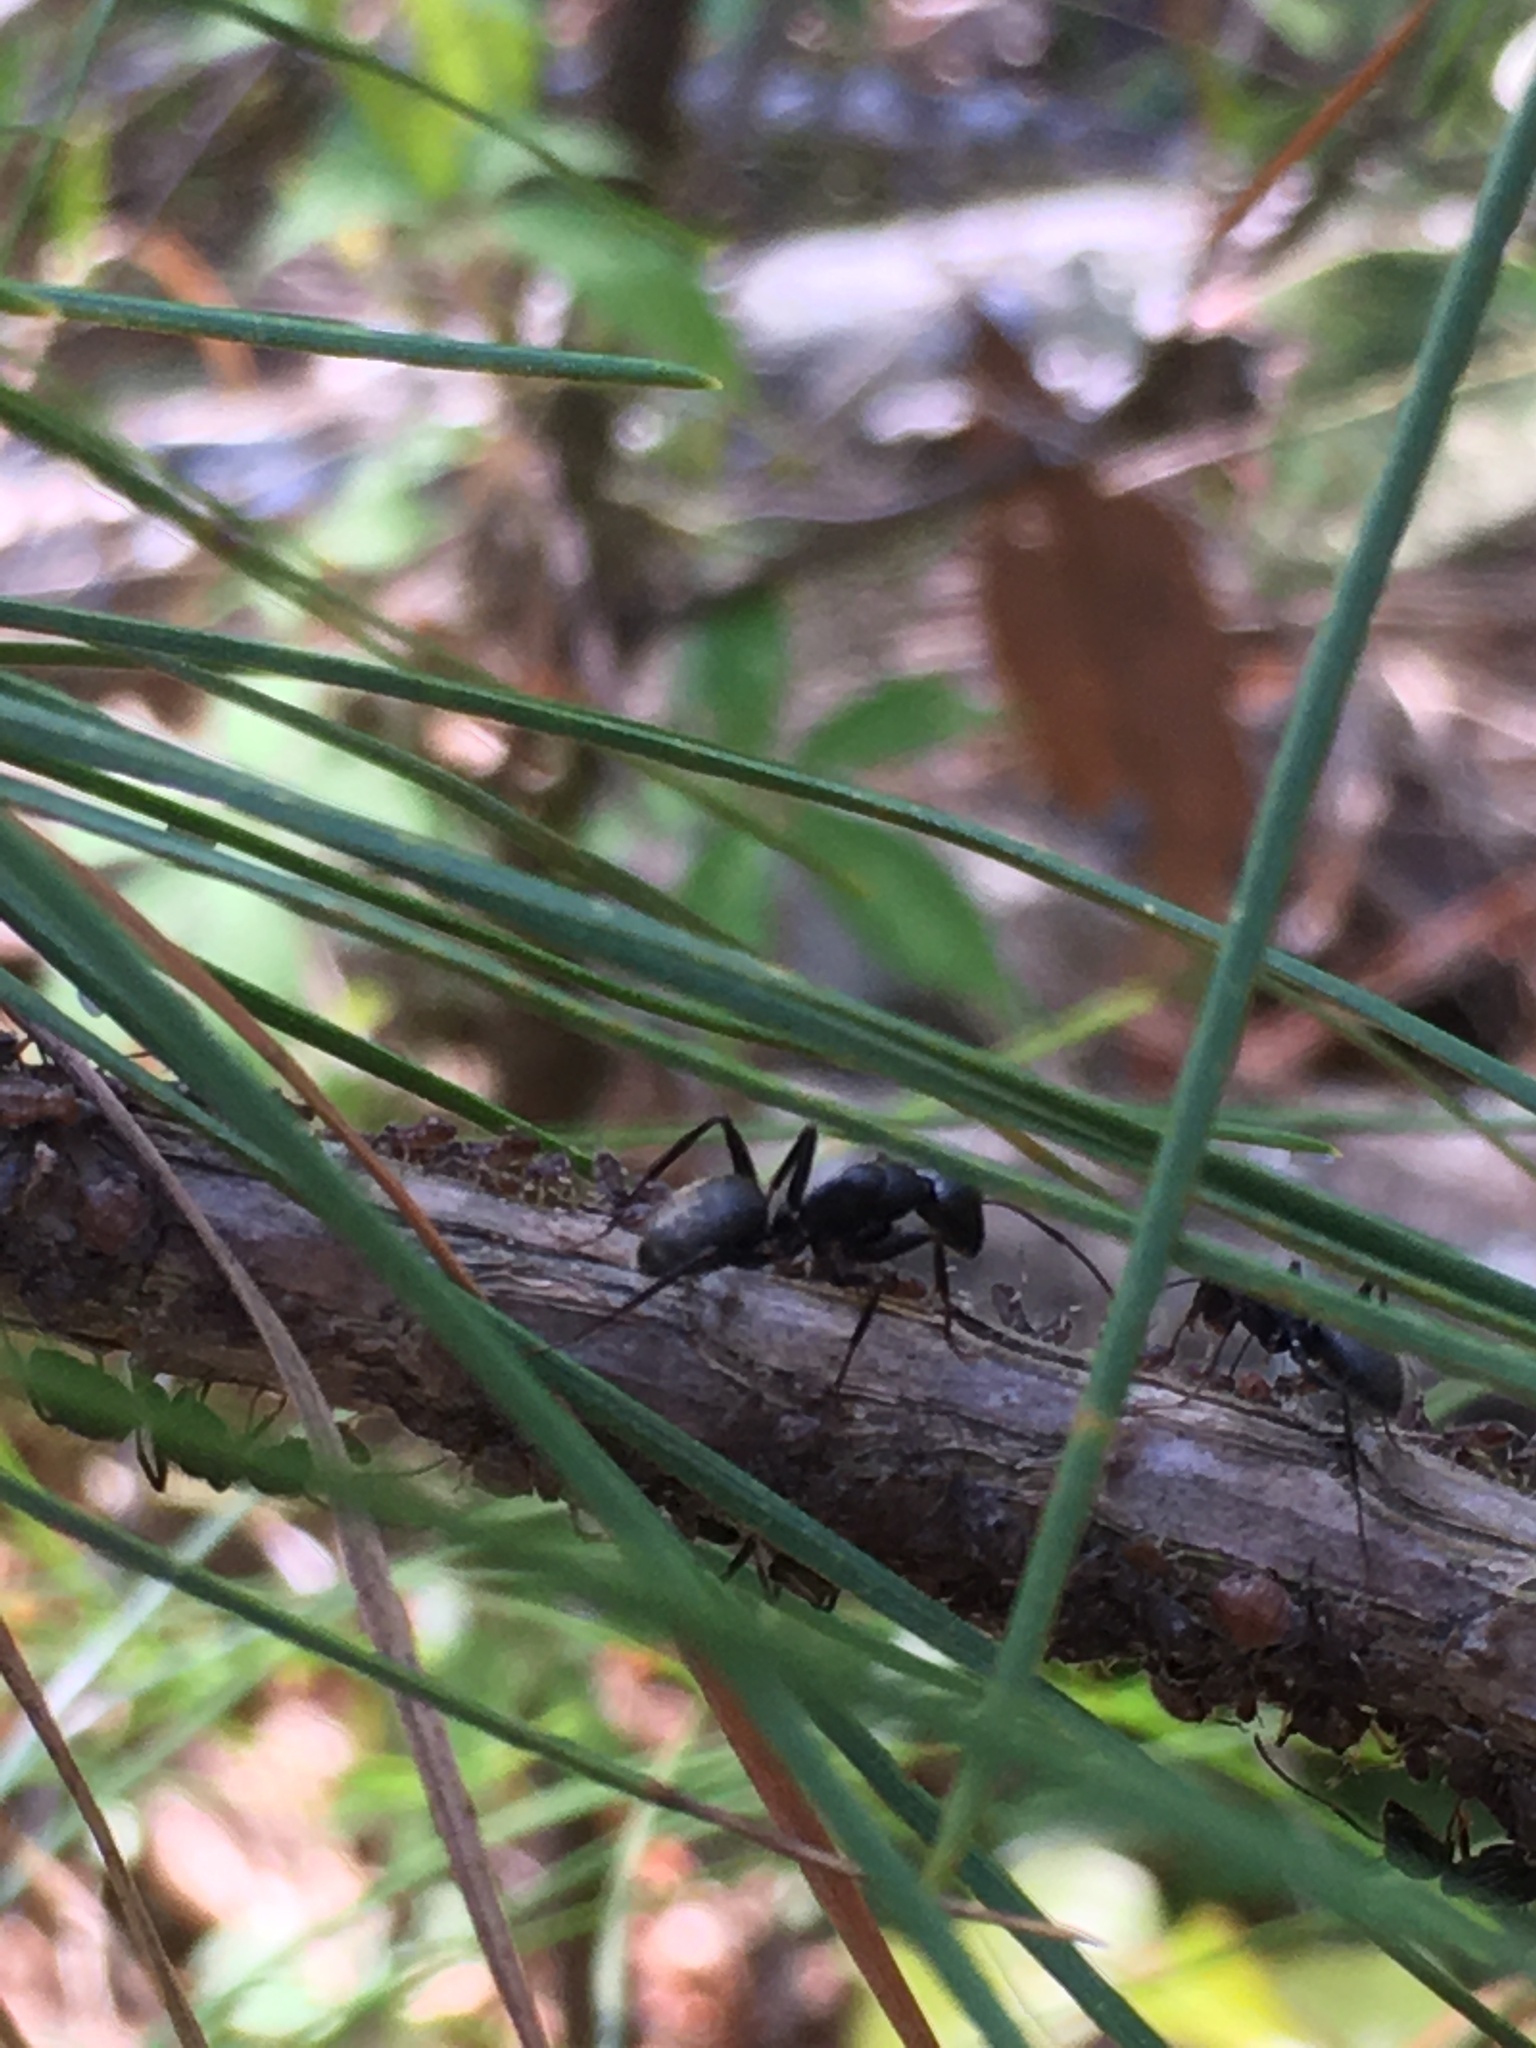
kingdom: Animalia
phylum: Arthropoda
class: Insecta
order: Hymenoptera
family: Formicidae
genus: Camponotus
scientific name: Camponotus chromaiodes
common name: Red carpenter ant
